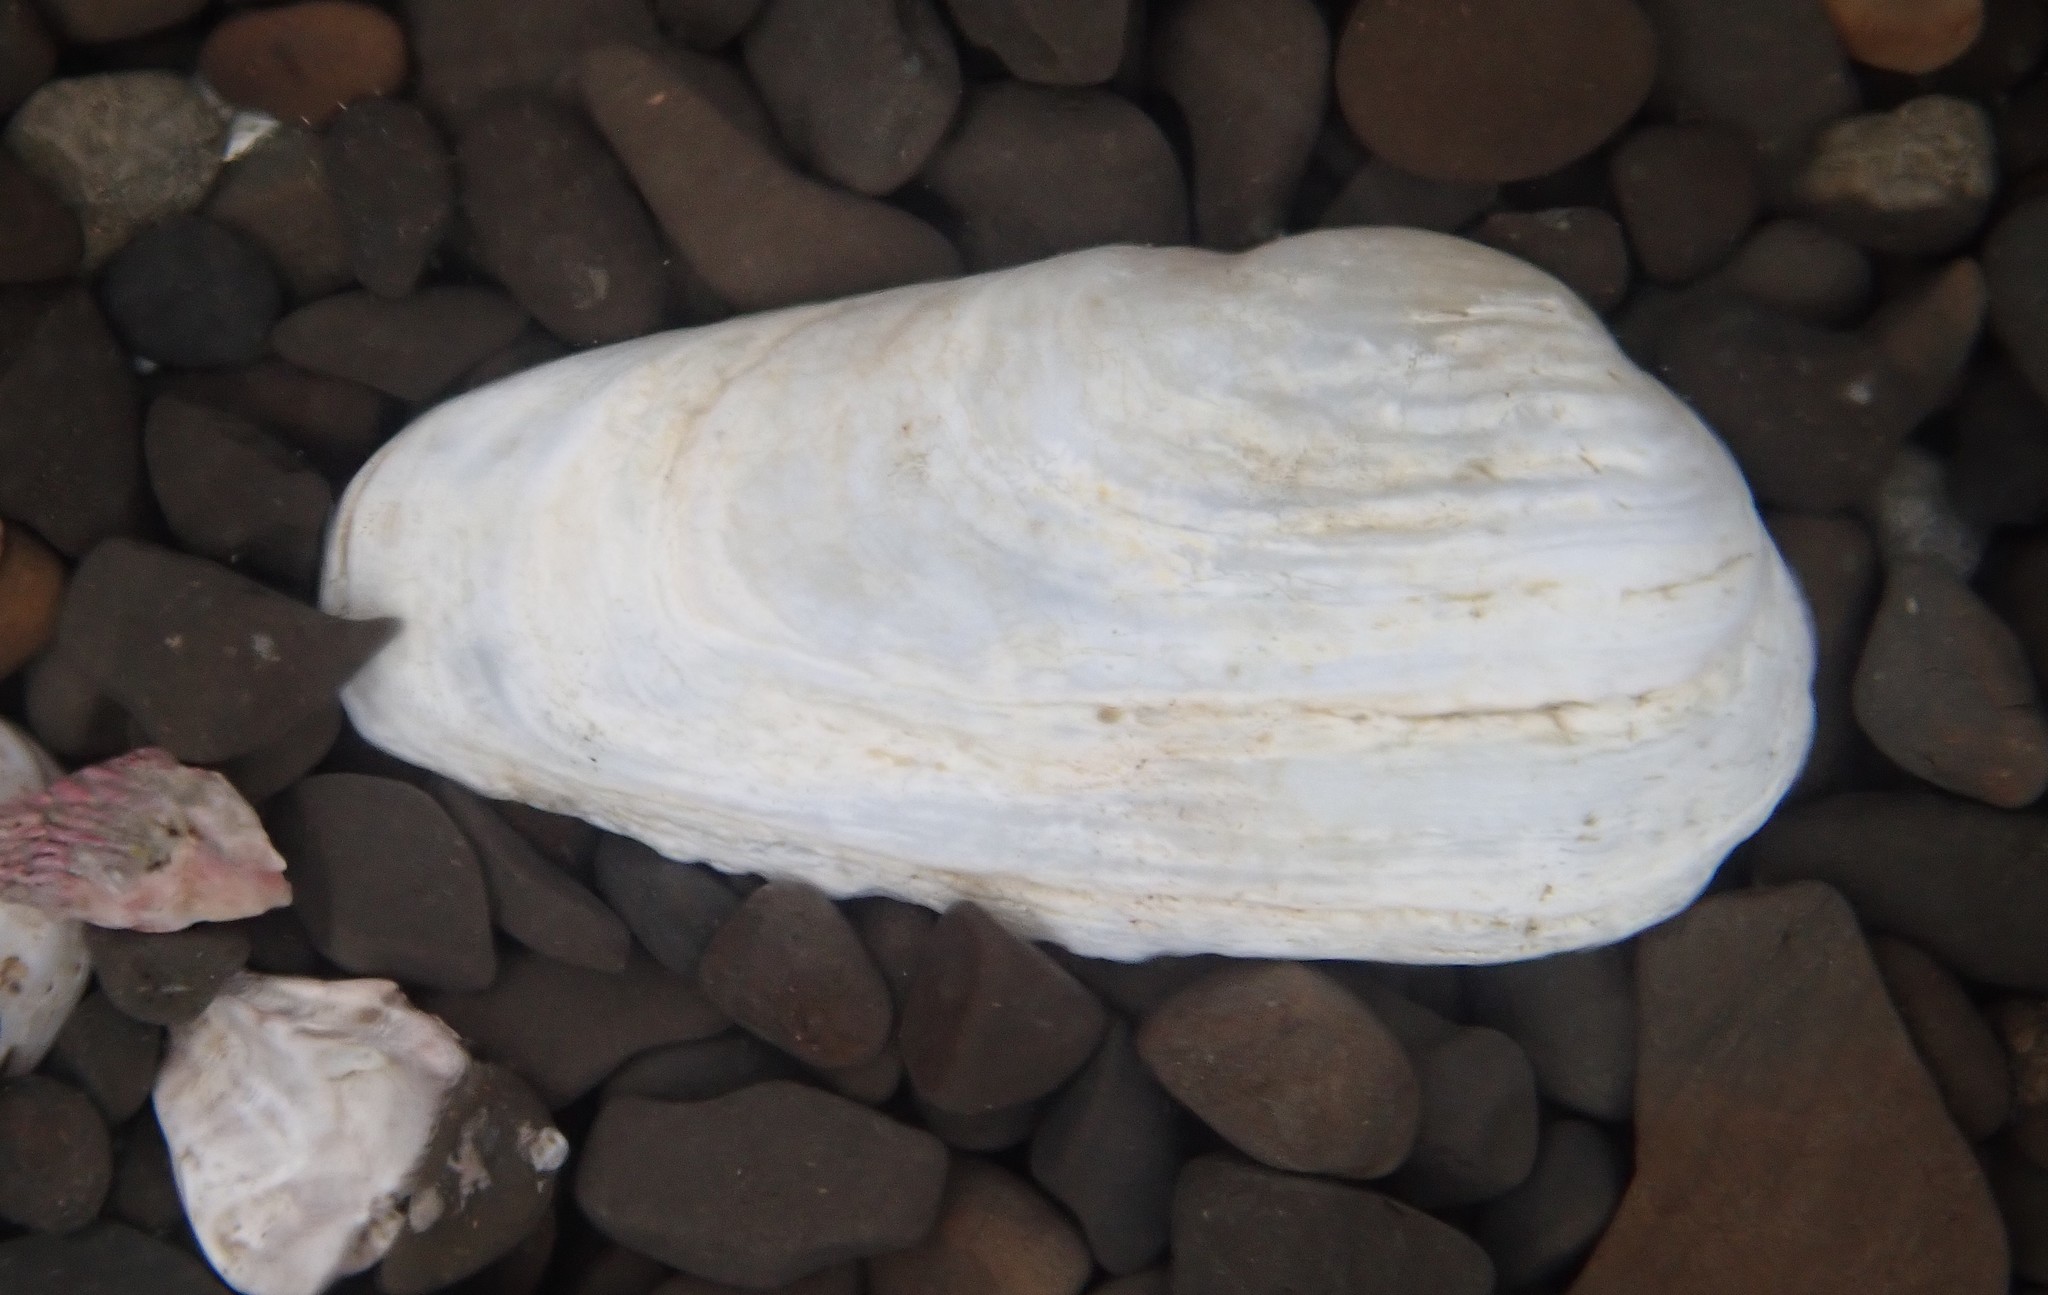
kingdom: Animalia
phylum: Mollusca
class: Bivalvia
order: Adapedonta
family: Hiatellidae
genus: Hiatella
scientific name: Hiatella arctica
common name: Arctic hiatella
